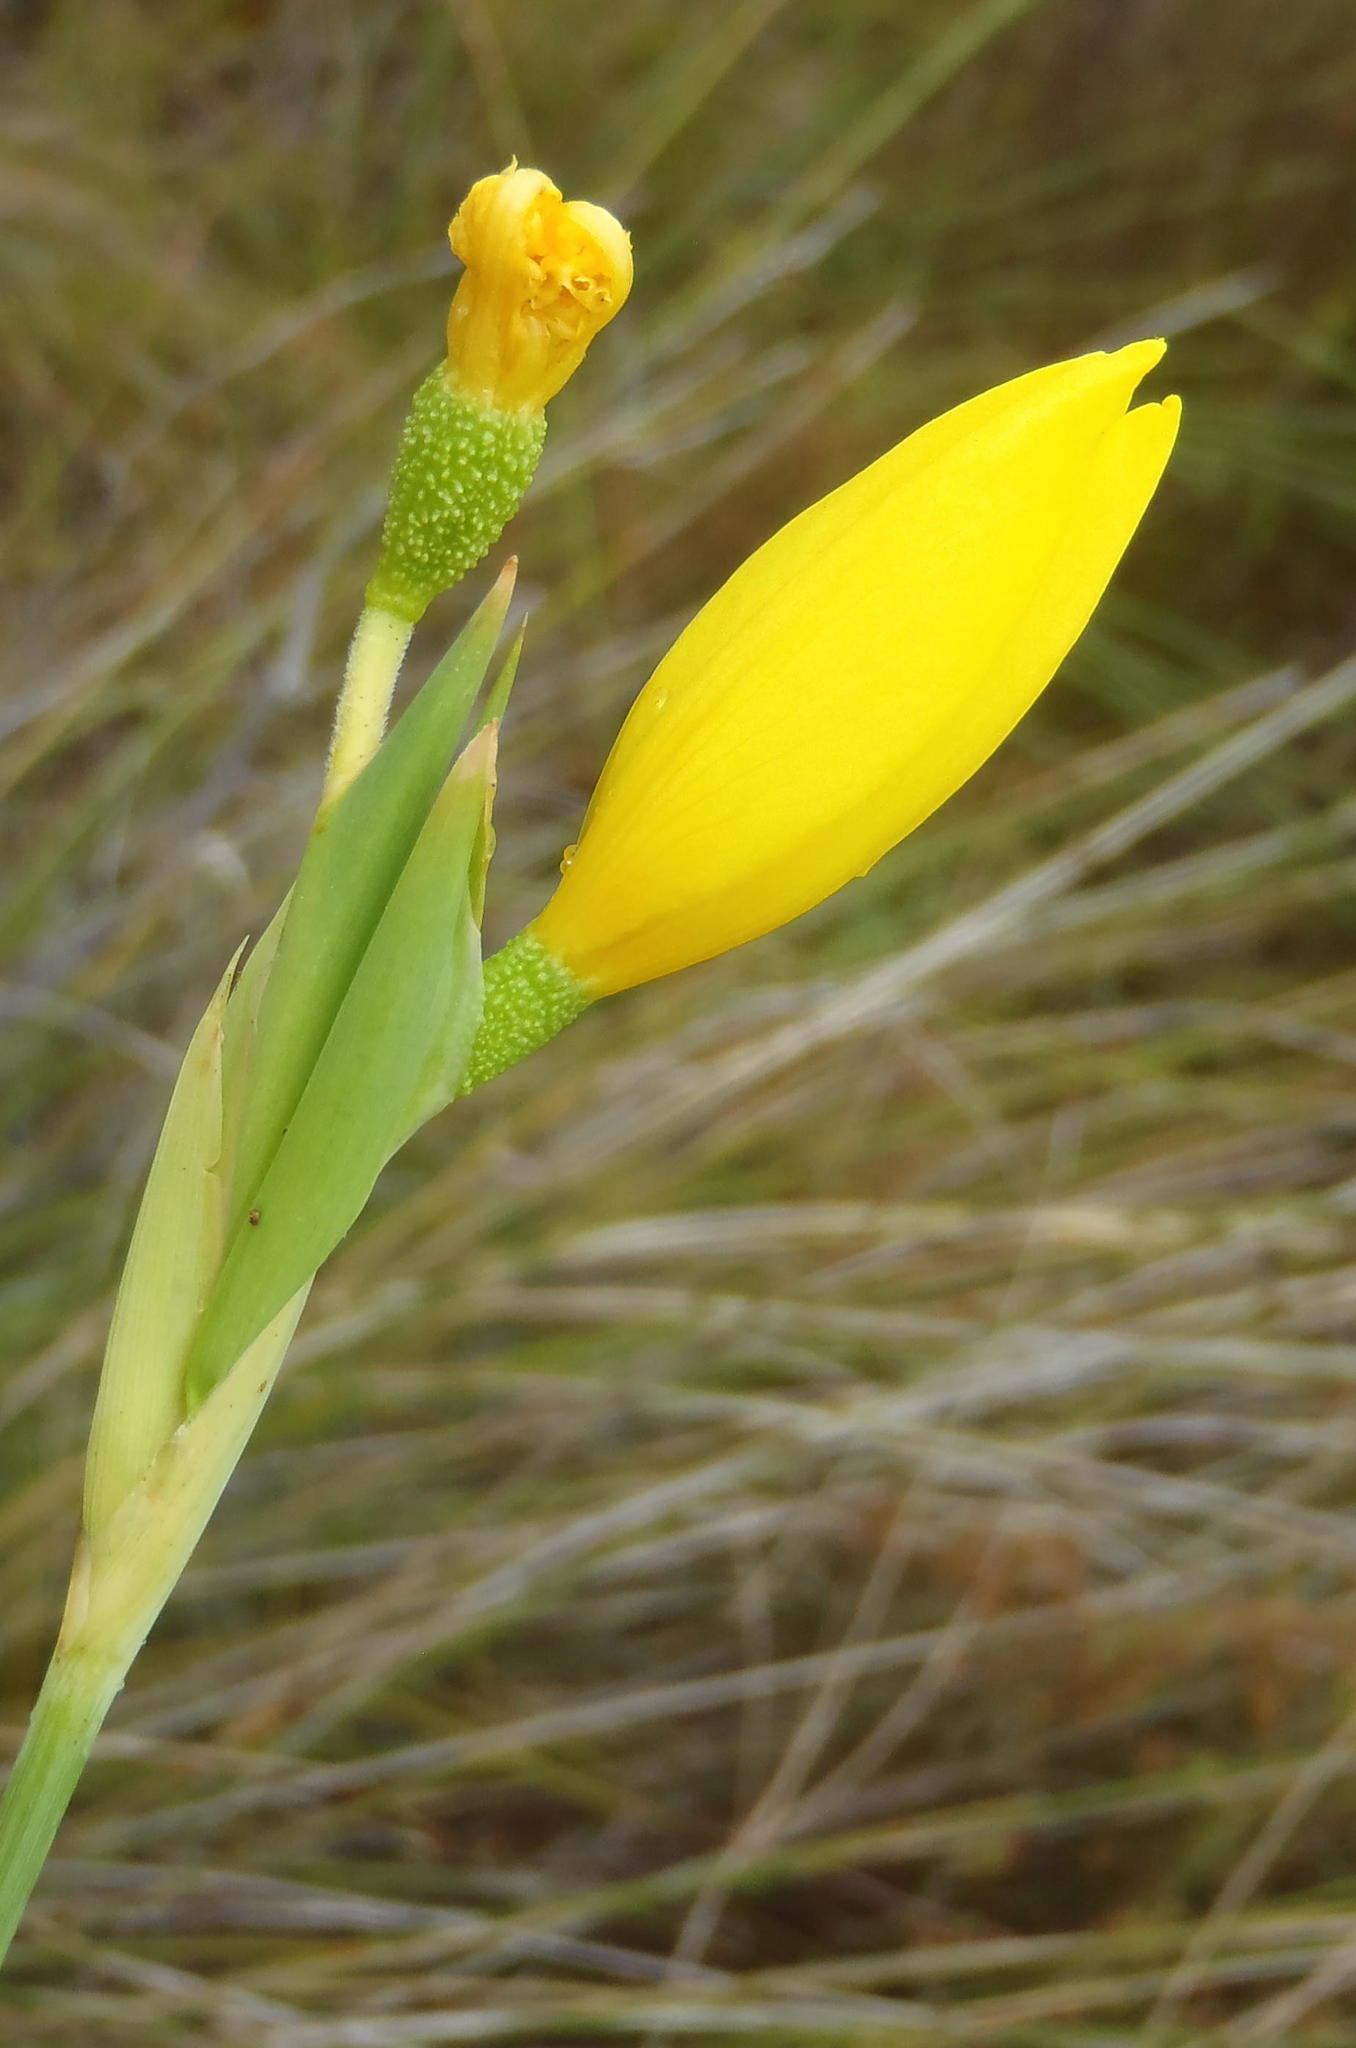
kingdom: Plantae
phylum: Tracheophyta
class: Liliopsida
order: Asparagales
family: Iridaceae
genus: Bobartia
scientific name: Bobartia aphylla
